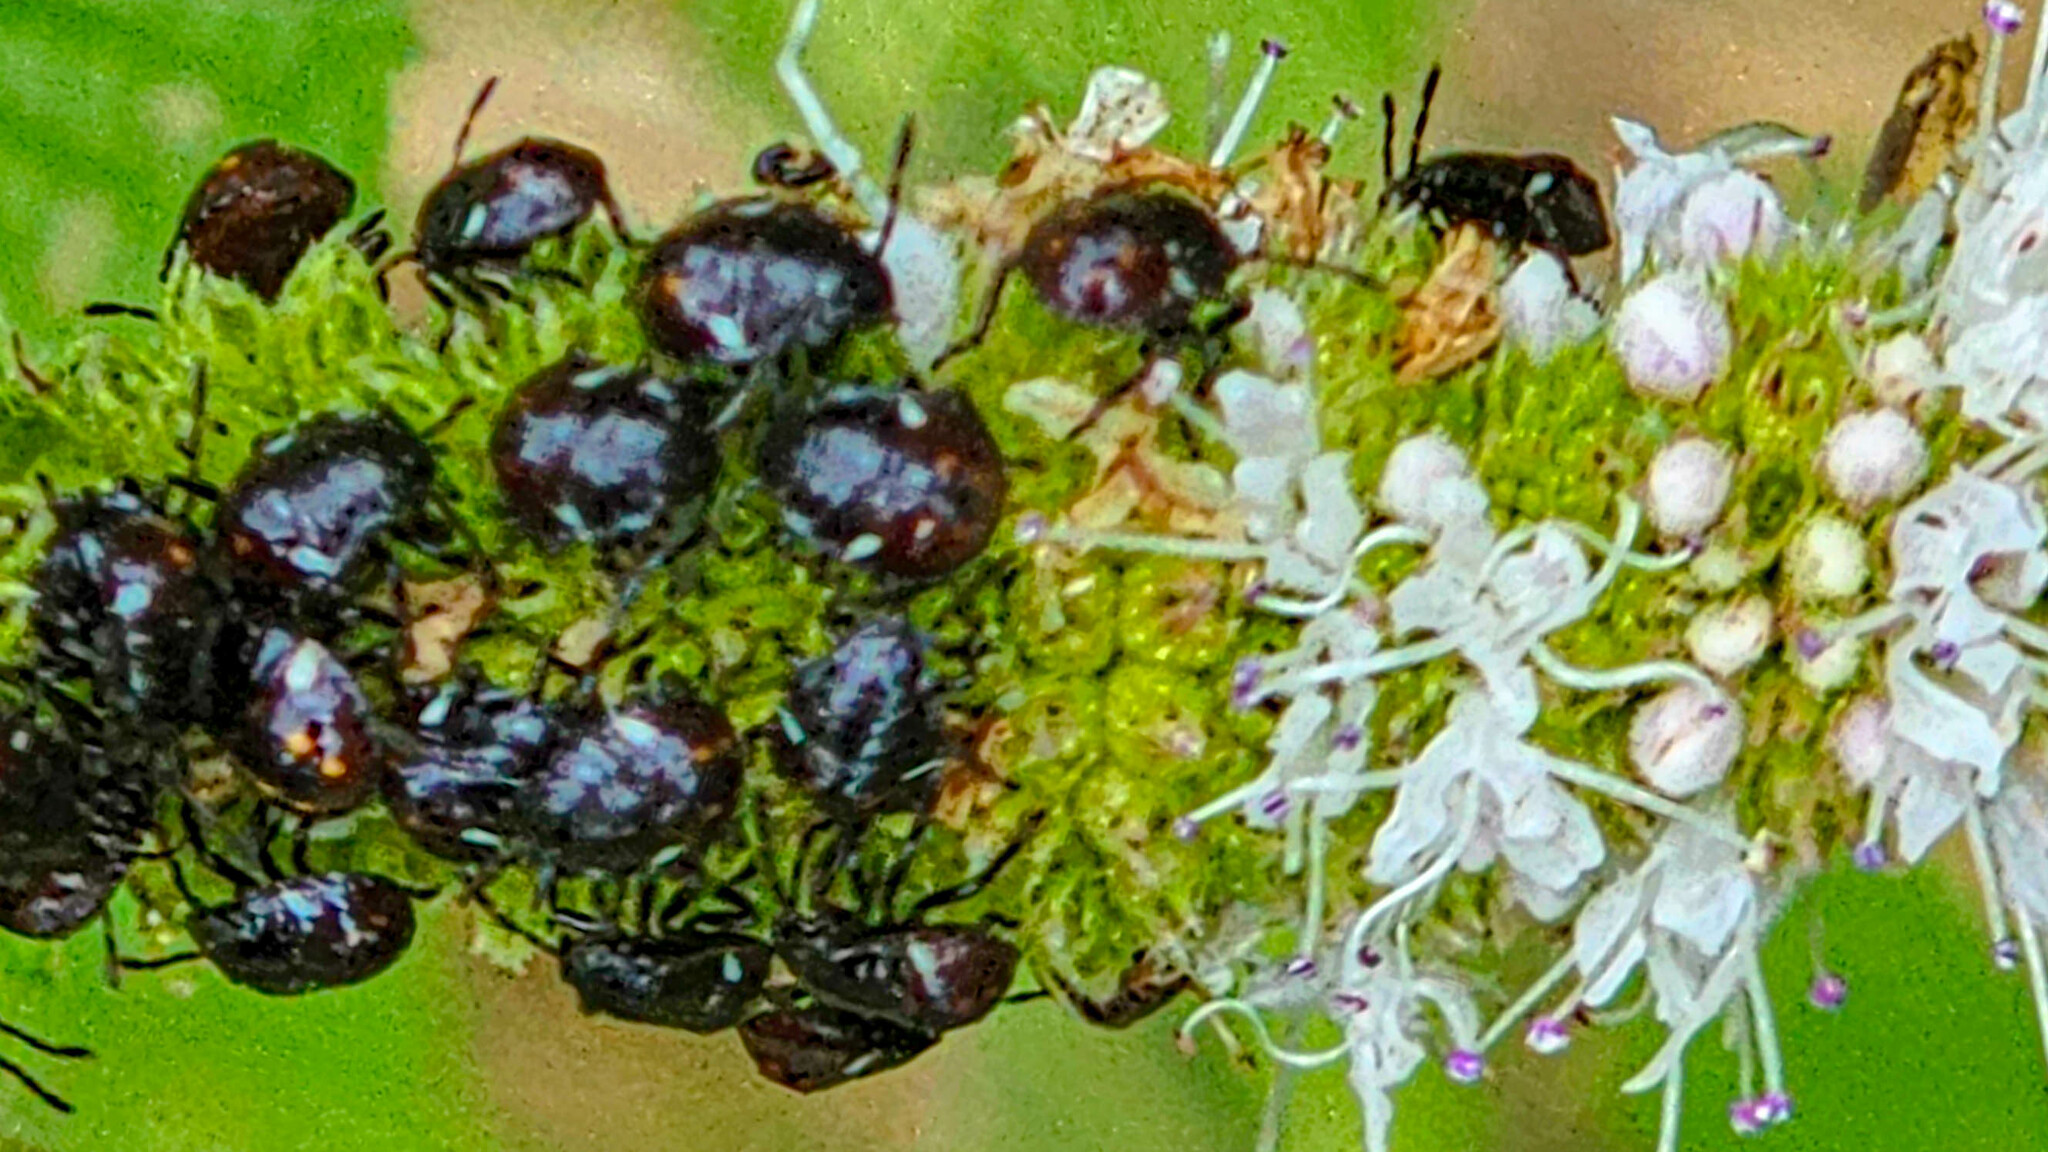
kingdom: Animalia
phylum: Arthropoda
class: Insecta
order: Hemiptera
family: Pentatomidae
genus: Nezara
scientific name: Nezara viridula
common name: Southern green stink bug
